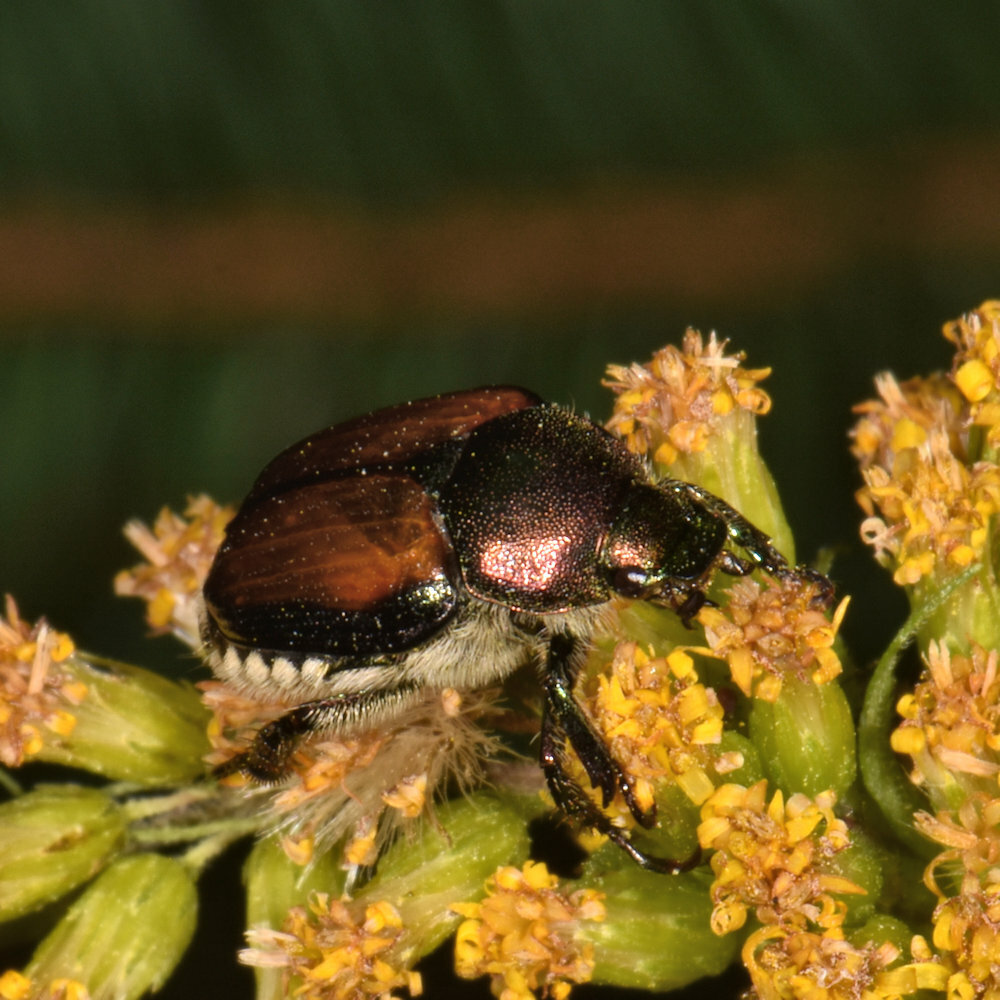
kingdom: Animalia
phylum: Arthropoda
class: Insecta
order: Coleoptera
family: Scarabaeidae
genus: Popillia
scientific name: Popillia japonica
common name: Japanese beetle
